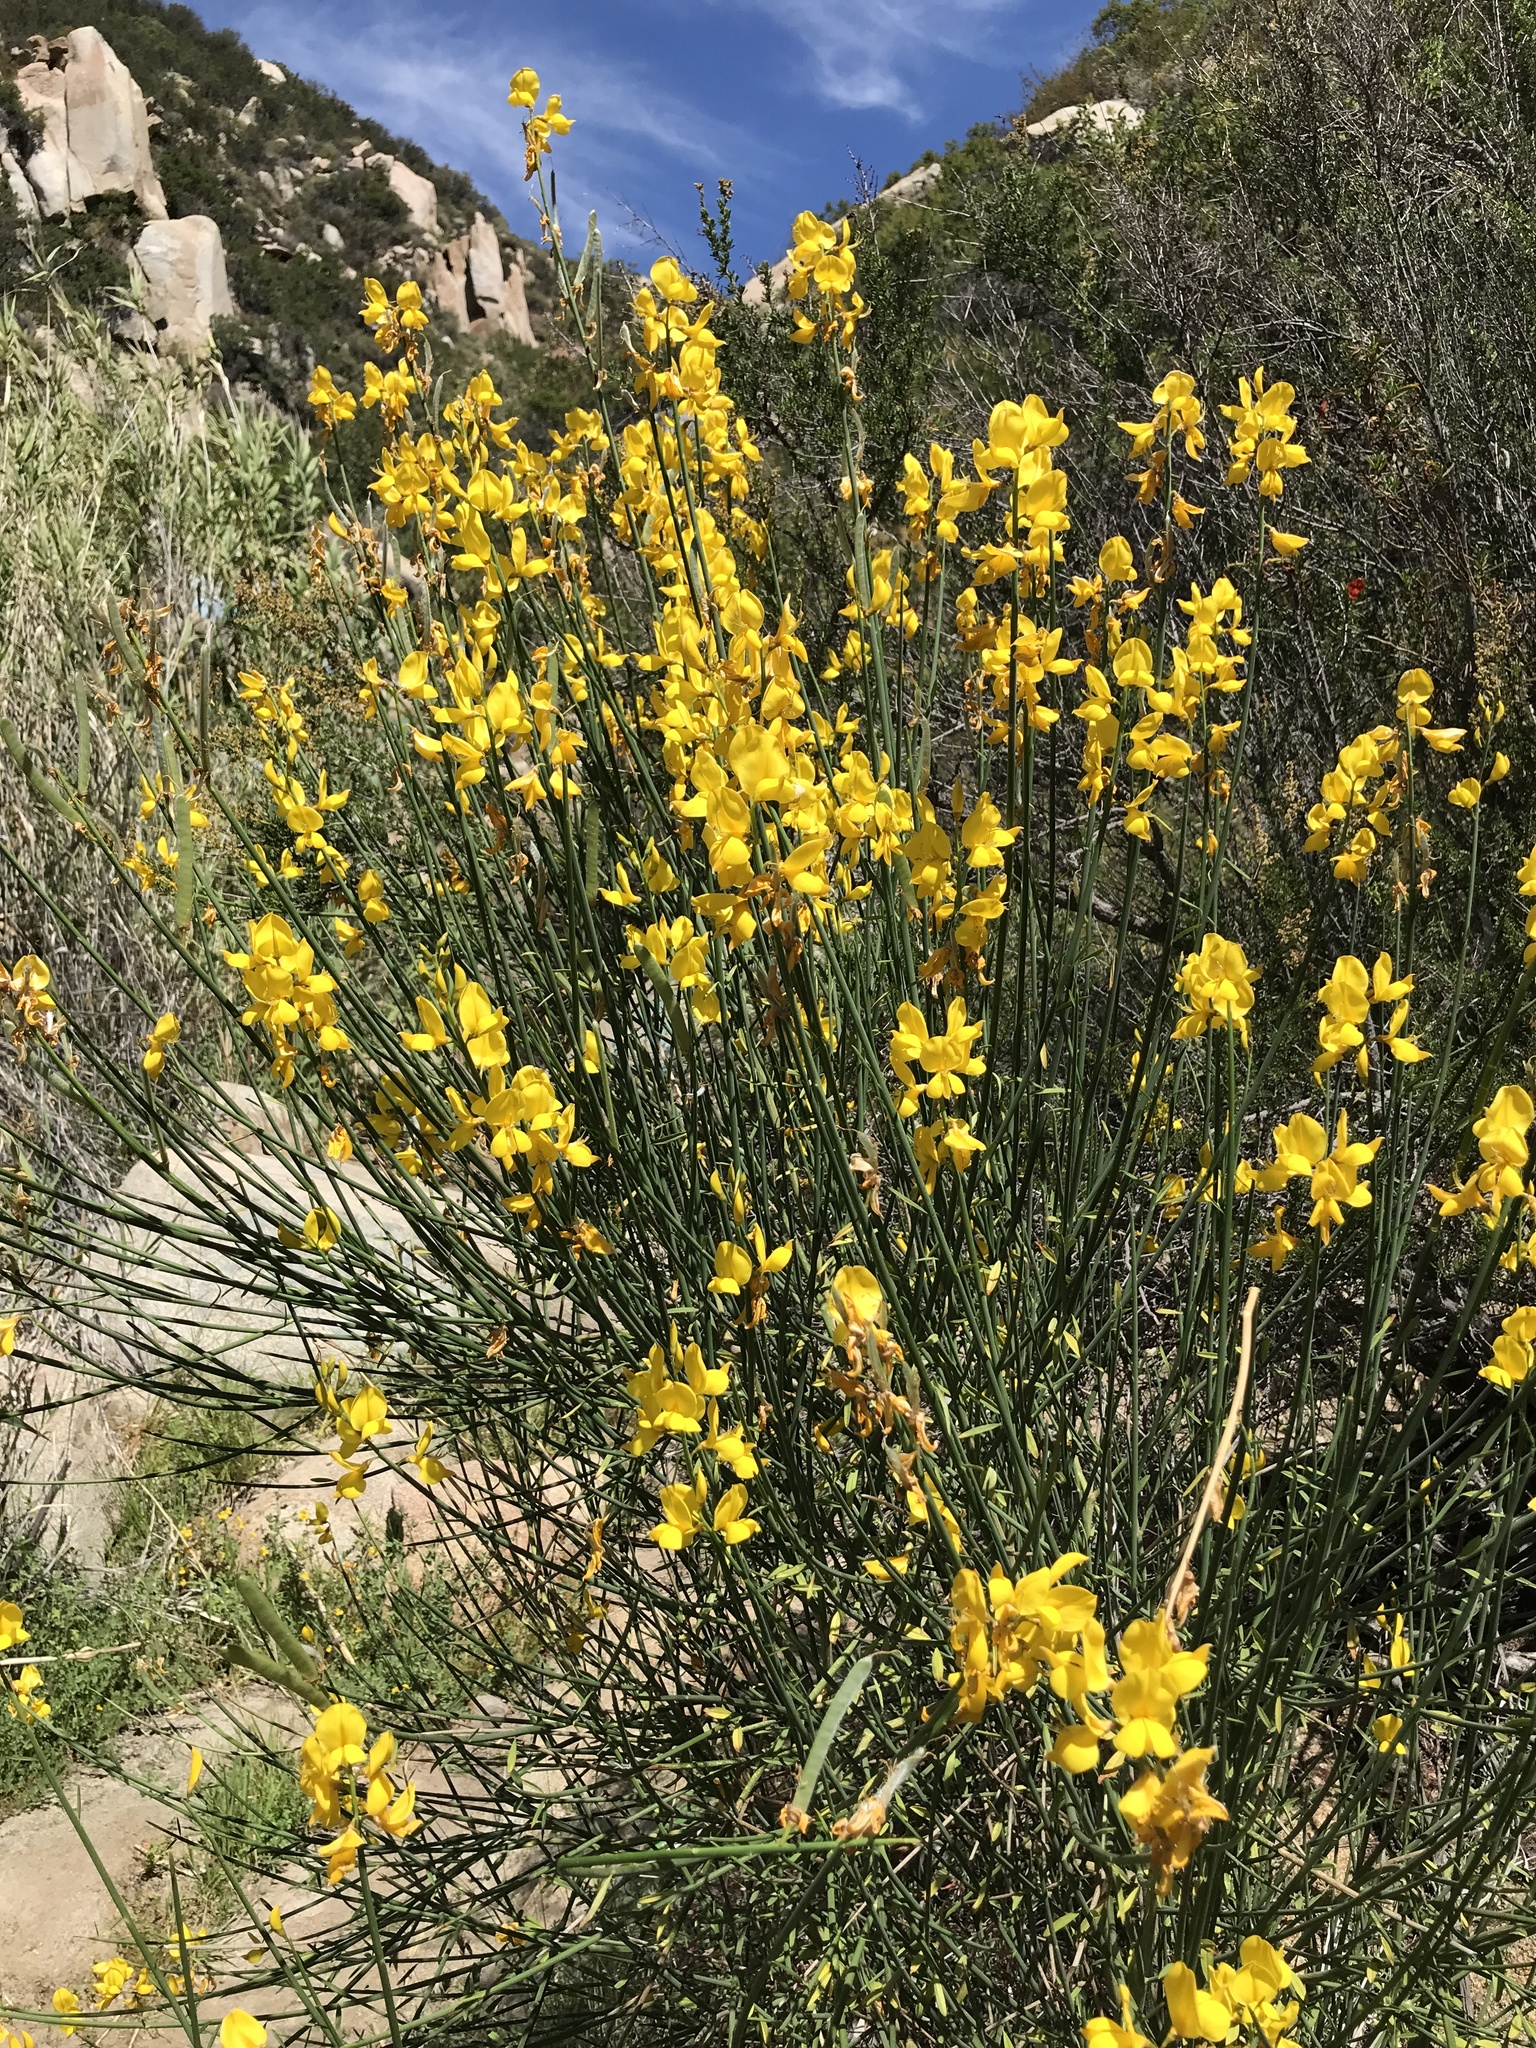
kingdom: Plantae
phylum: Tracheophyta
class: Magnoliopsida
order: Fabales
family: Fabaceae
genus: Spartium
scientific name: Spartium junceum
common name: Spanish broom
